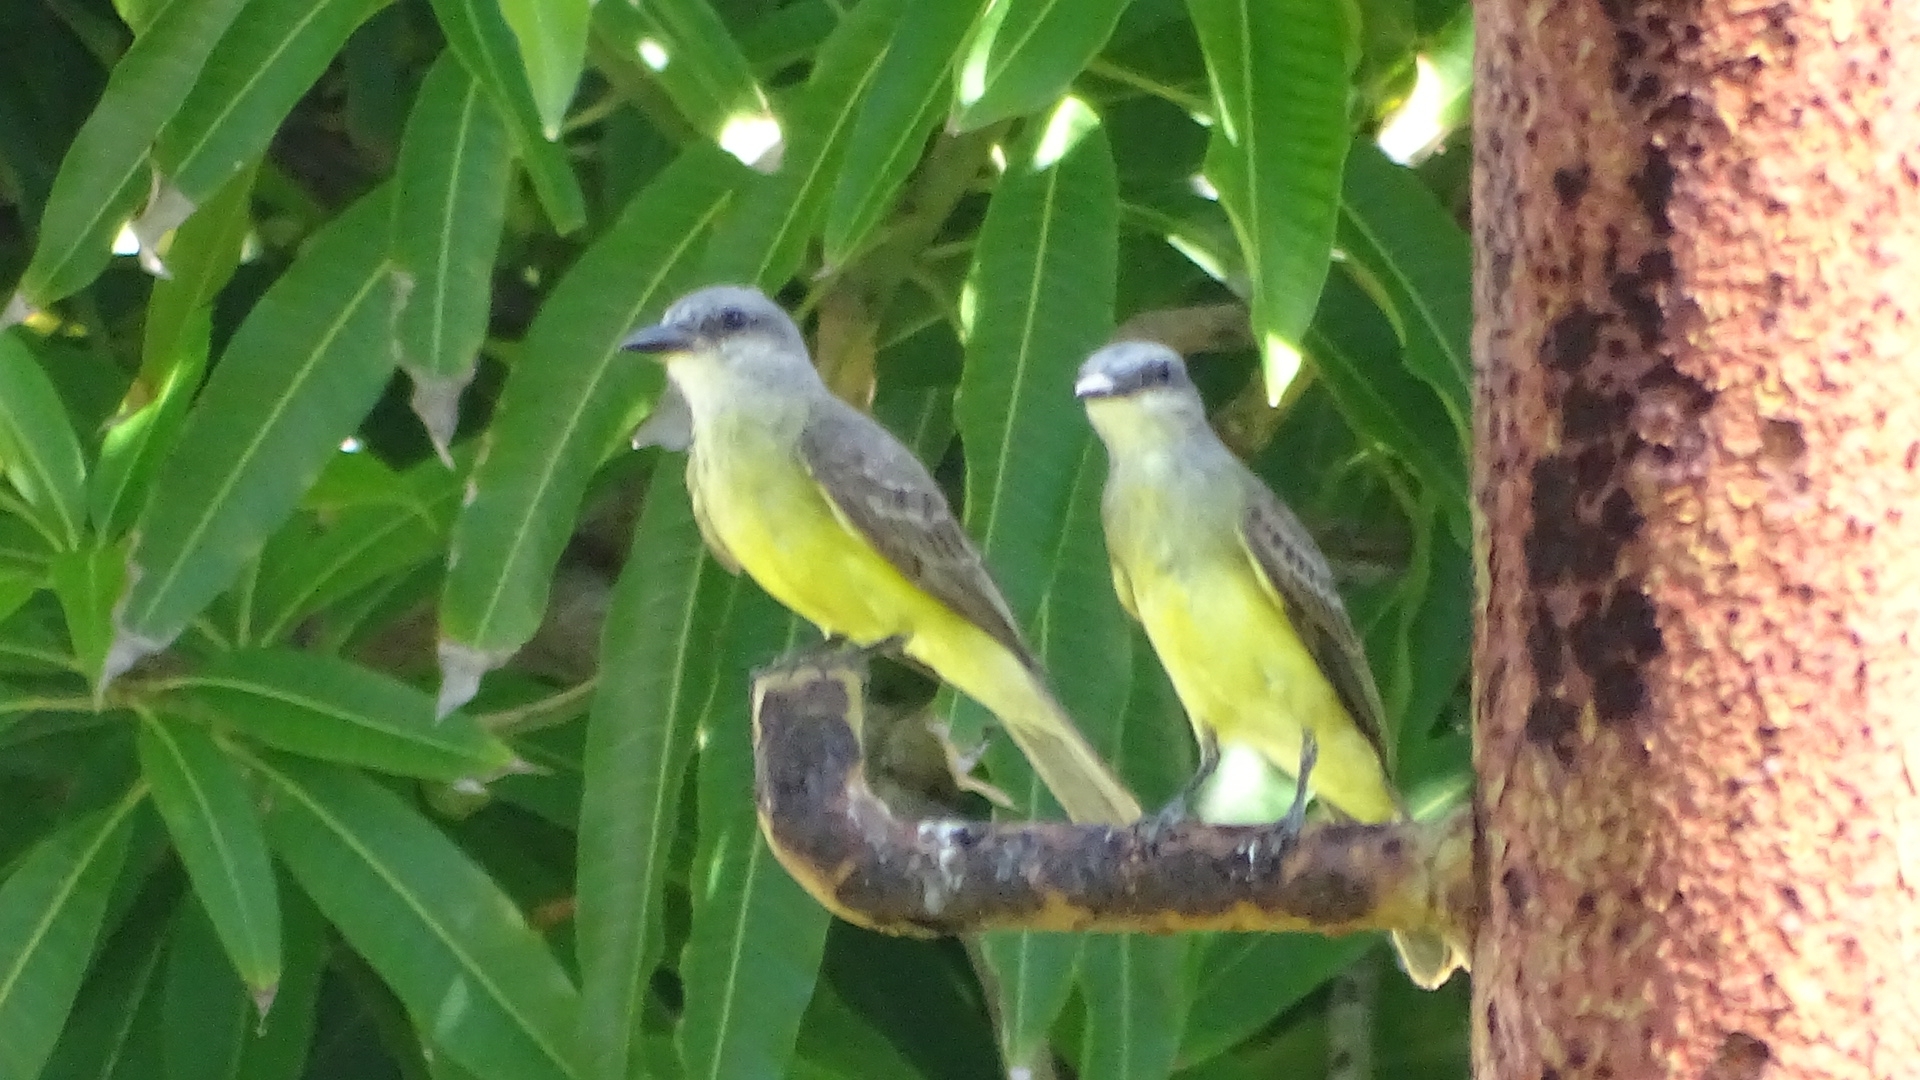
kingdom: Animalia
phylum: Chordata
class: Aves
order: Passeriformes
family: Tyrannidae
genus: Tyrannus
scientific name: Tyrannus melancholicus
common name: Tropical kingbird
